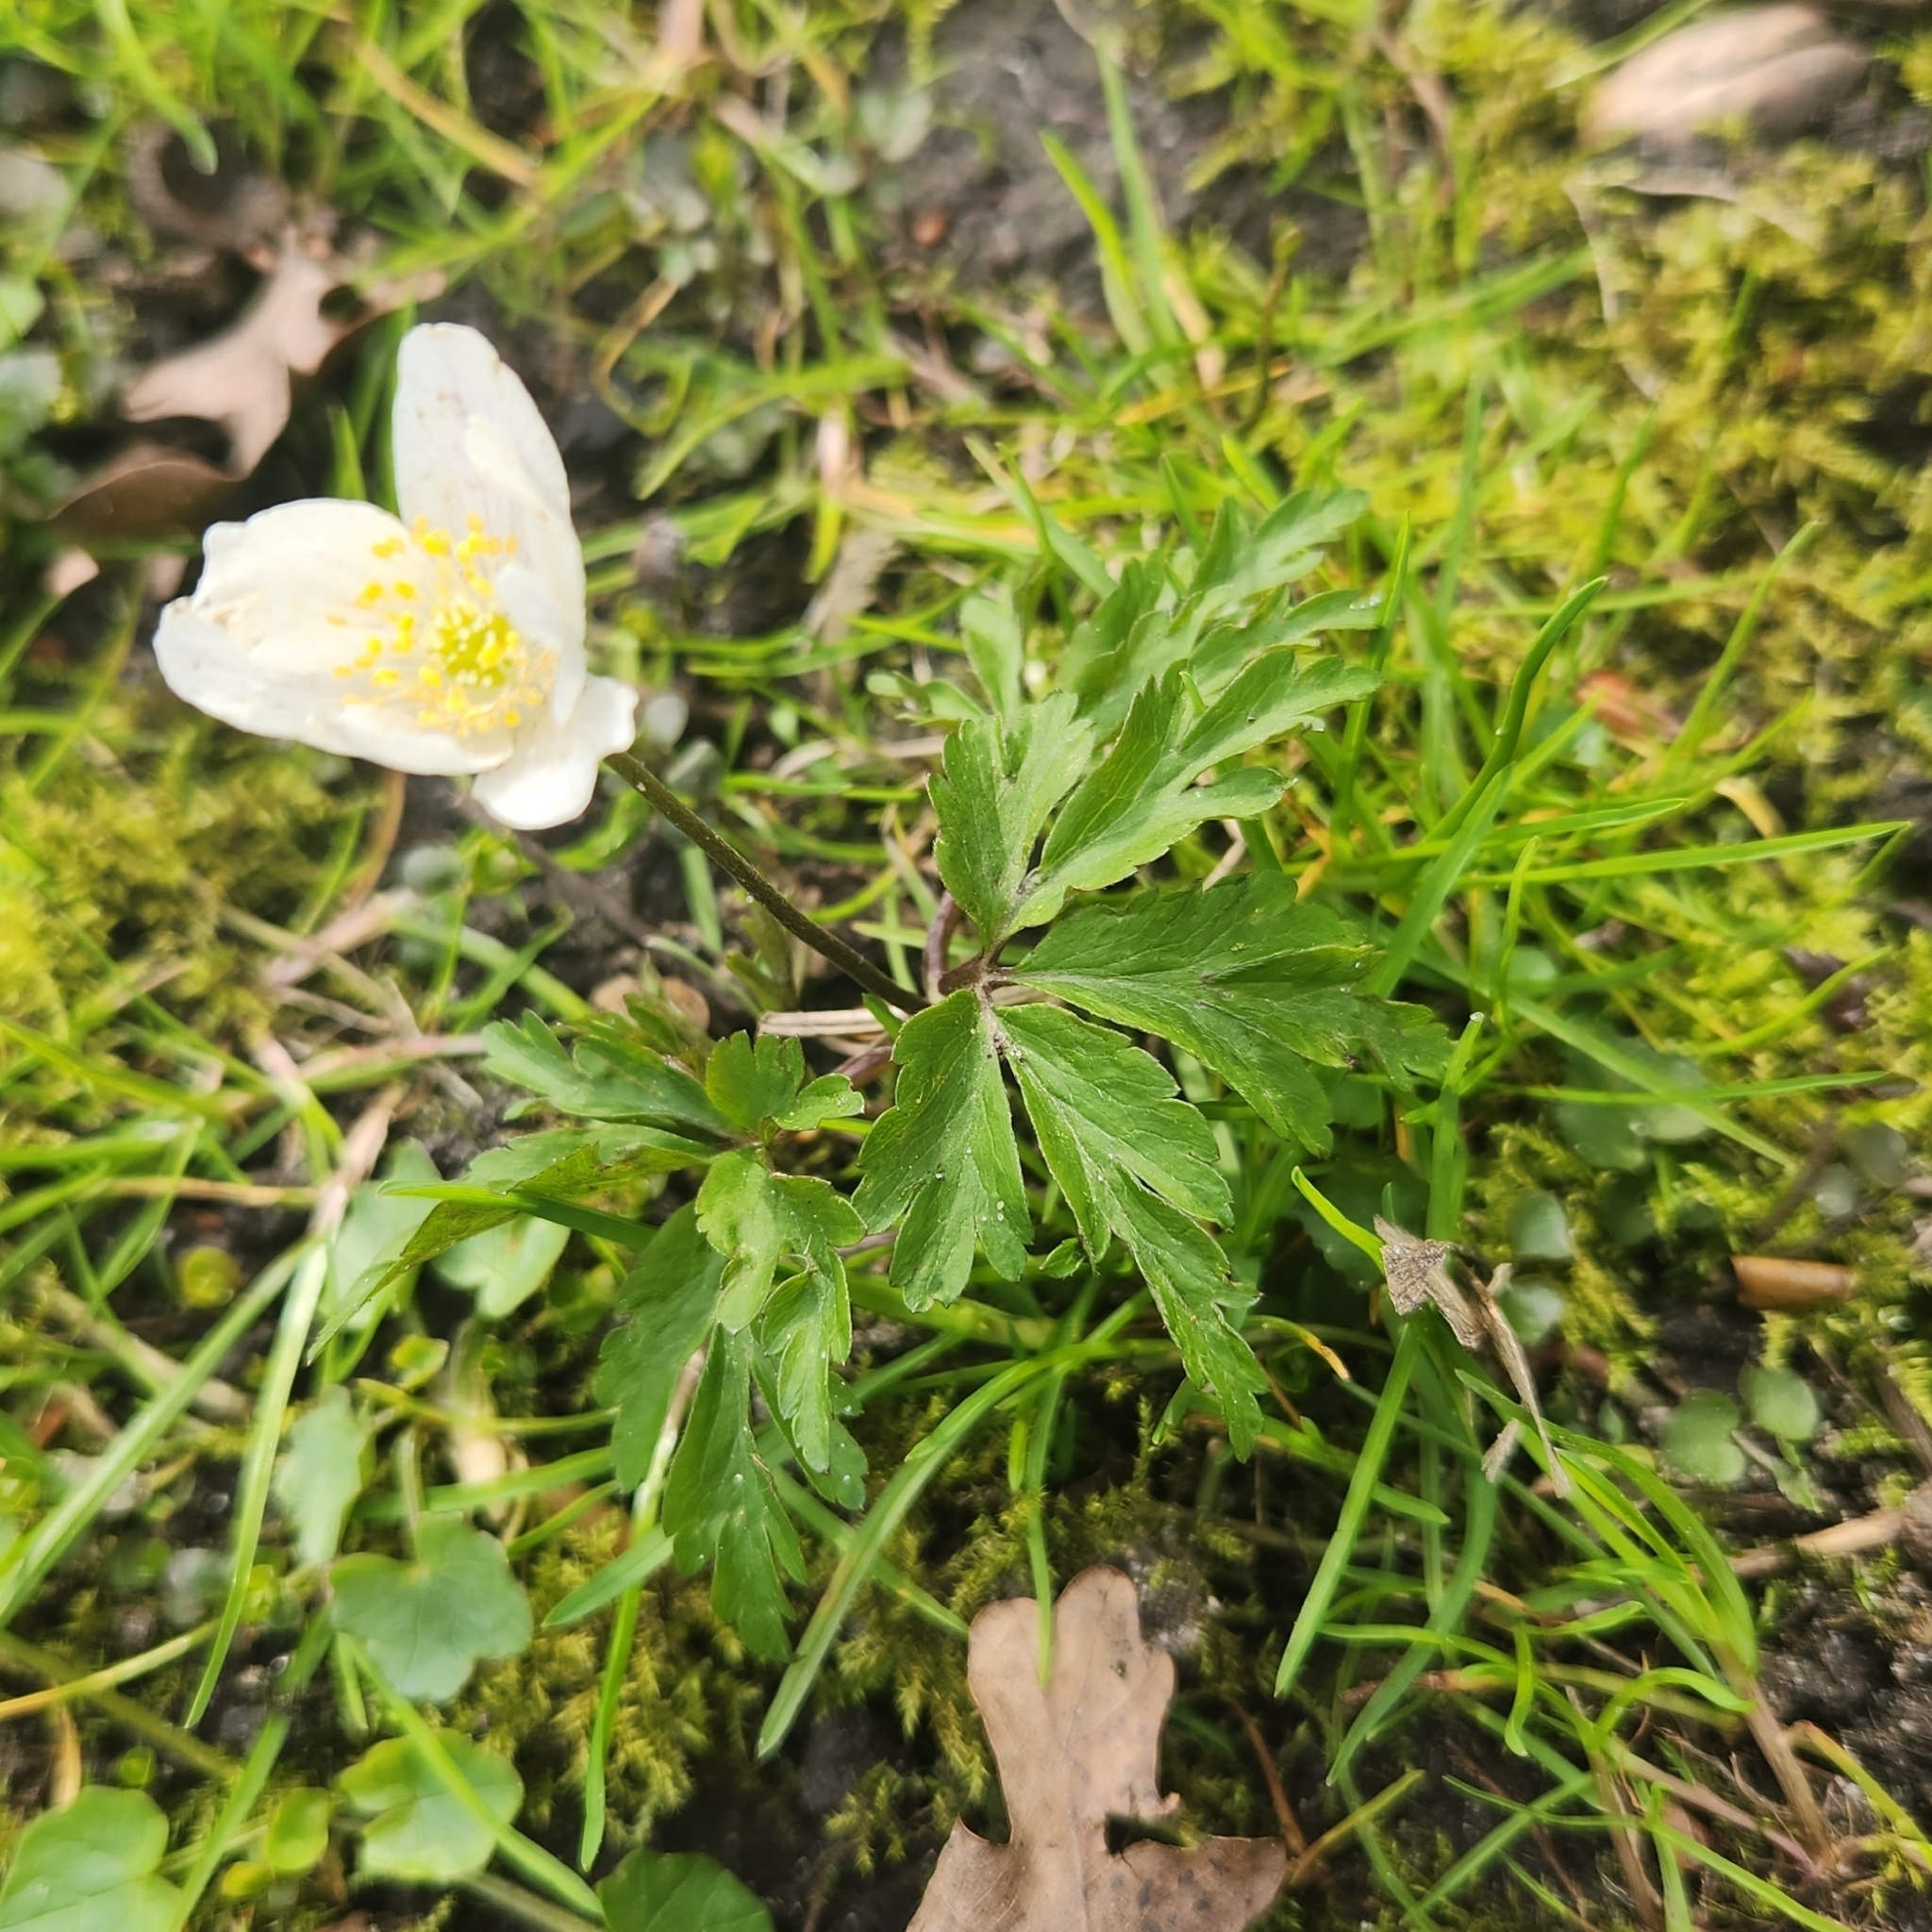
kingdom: Plantae
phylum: Tracheophyta
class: Magnoliopsida
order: Ranunculales
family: Ranunculaceae
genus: Anemone
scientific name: Anemone nemorosa
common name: Wood anemone
